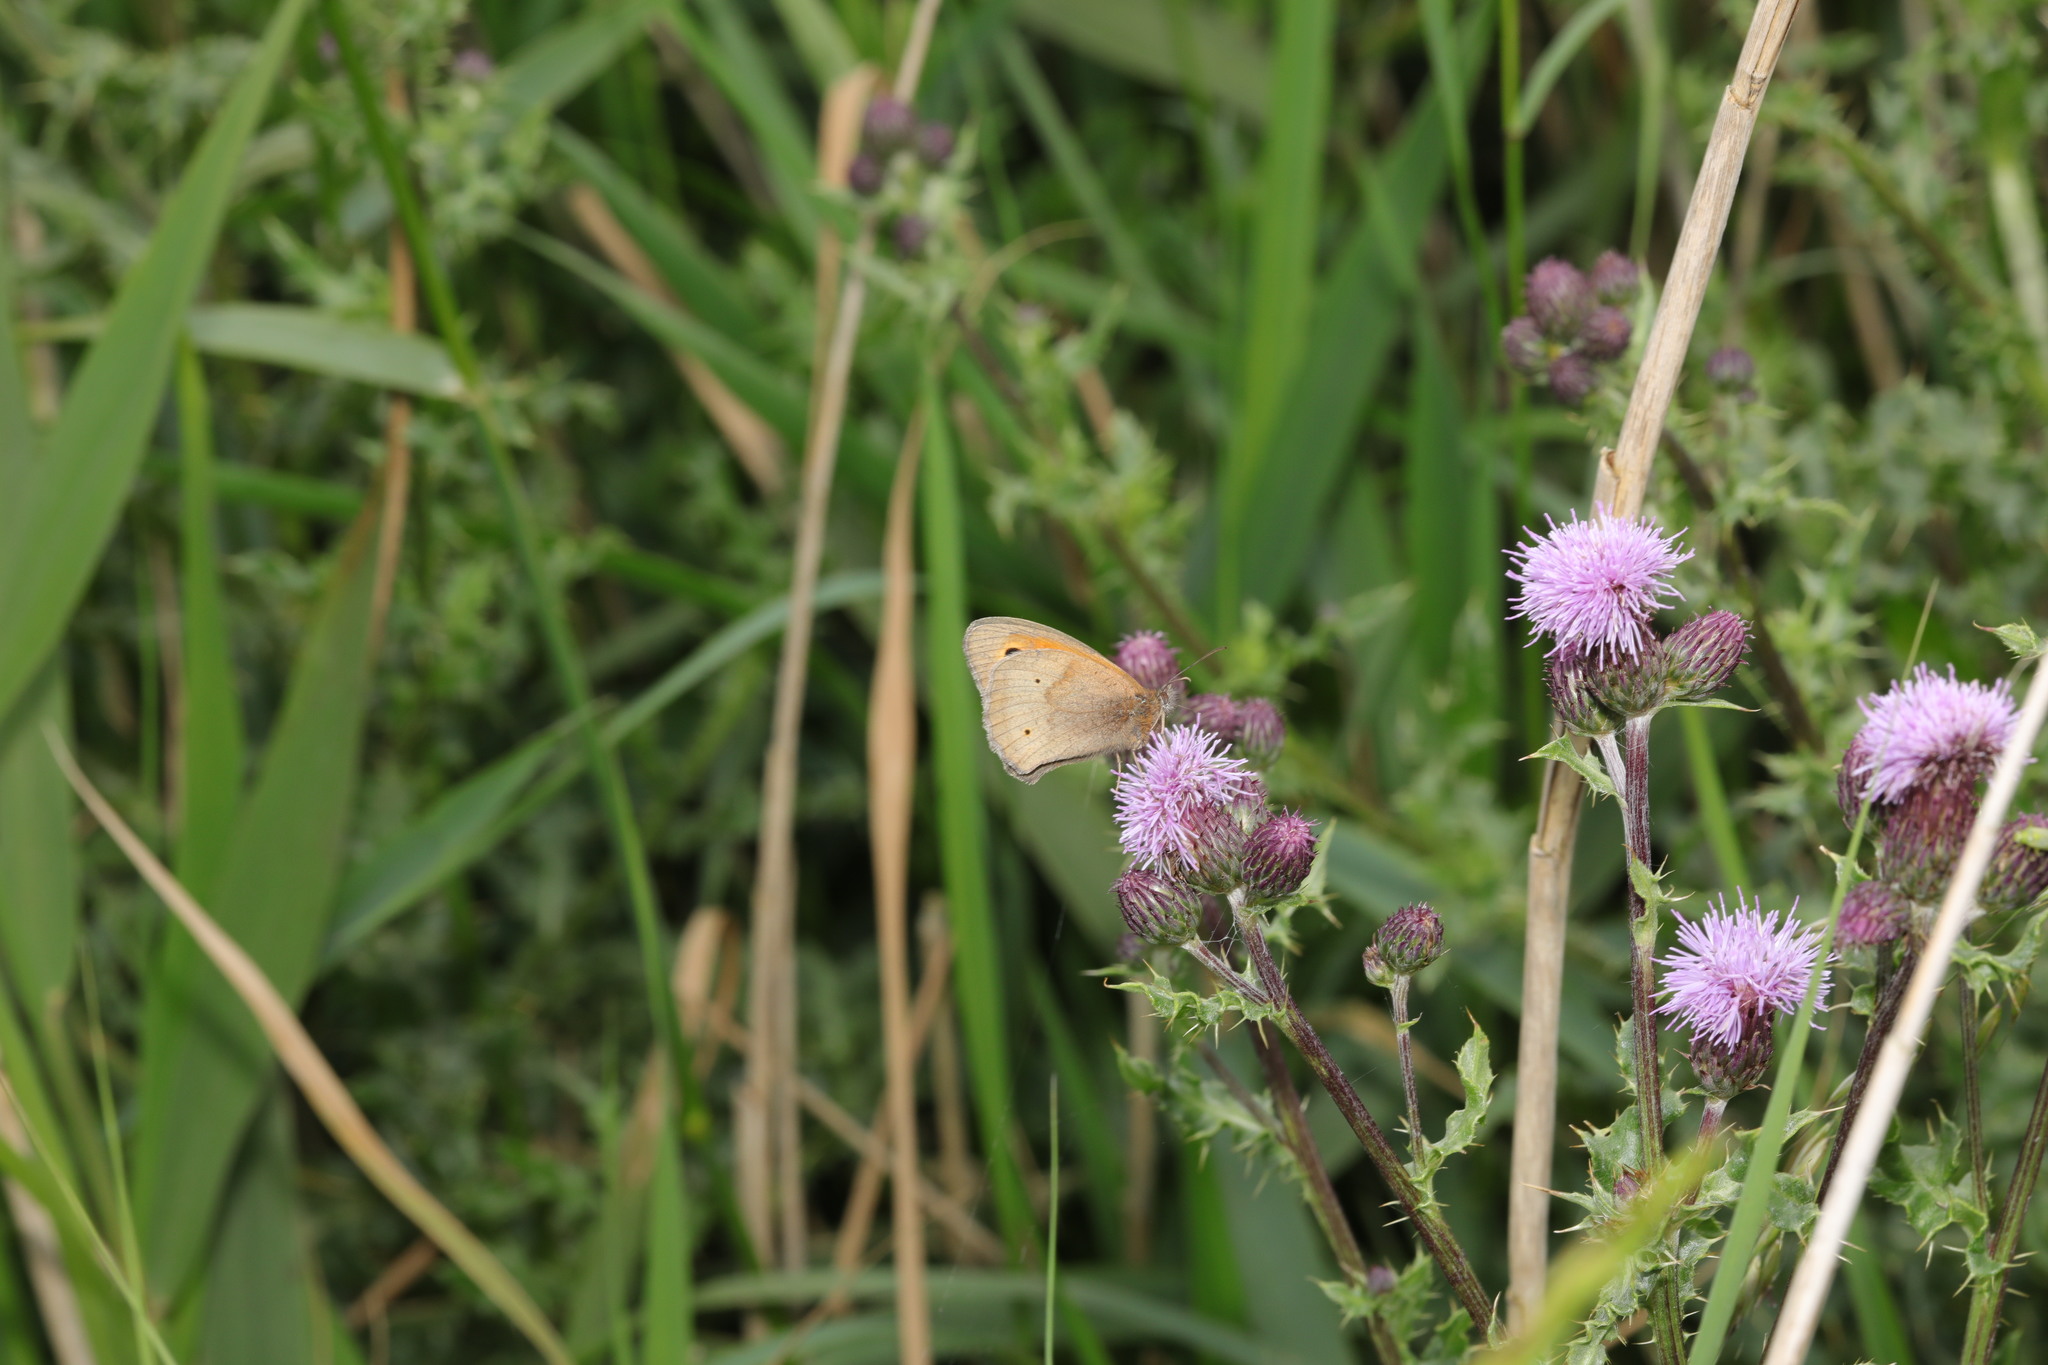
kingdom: Animalia
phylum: Arthropoda
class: Insecta
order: Lepidoptera
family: Nymphalidae
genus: Maniola
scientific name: Maniola jurtina
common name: Meadow brown
